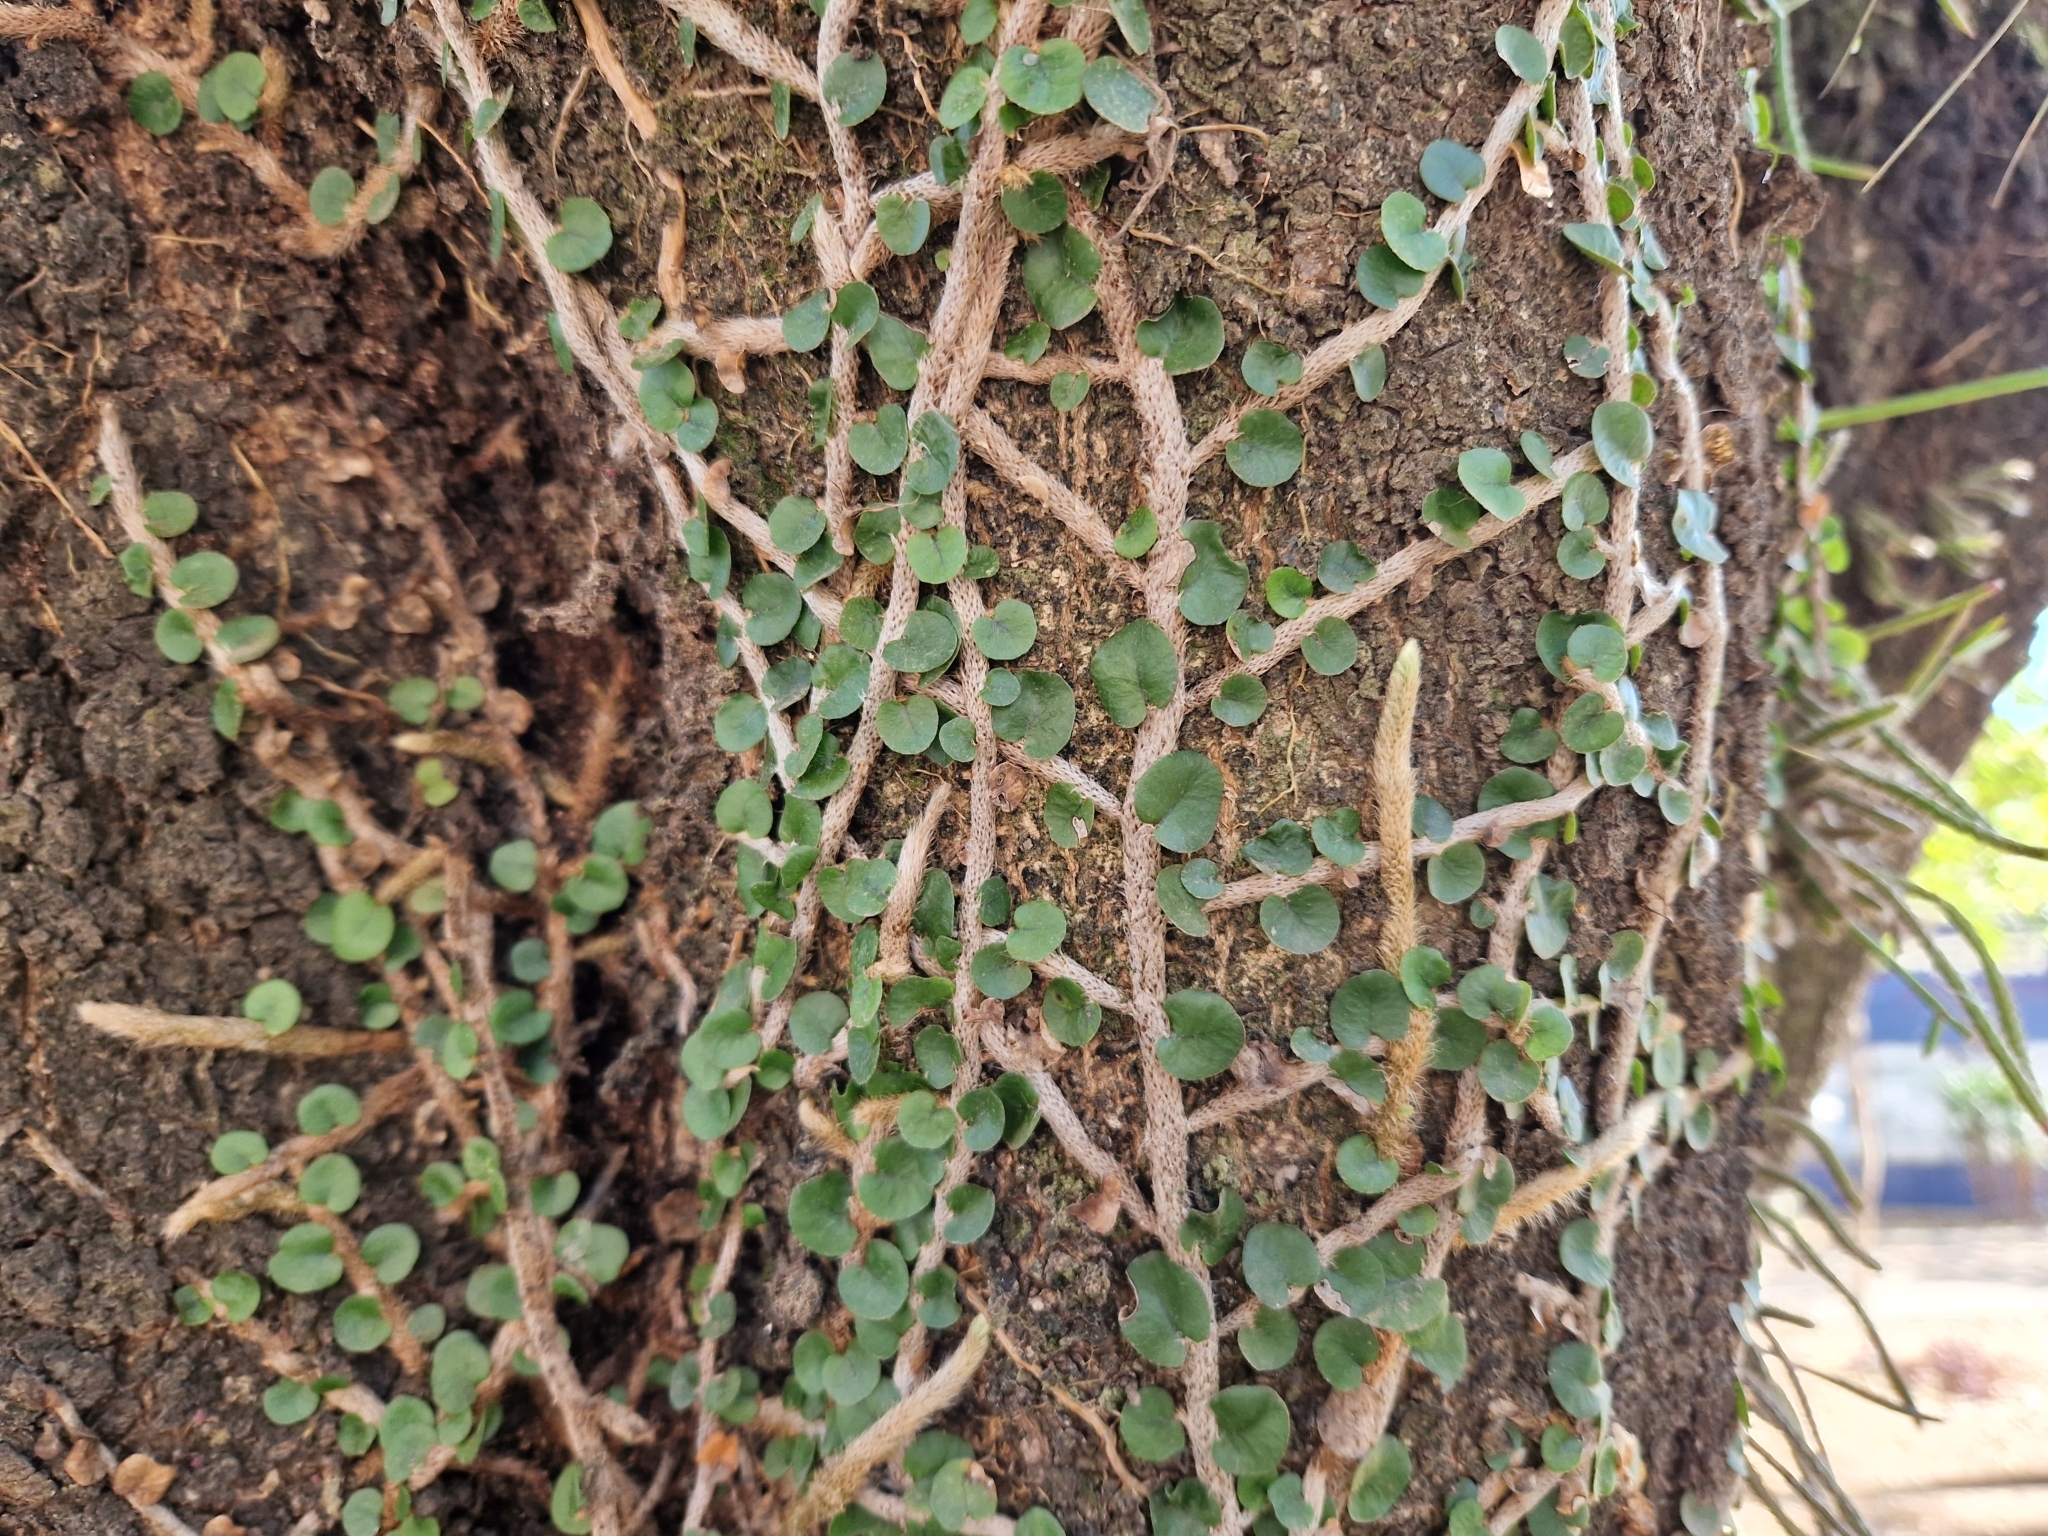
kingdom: Plantae
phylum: Tracheophyta
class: Polypodiopsida
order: Polypodiales
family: Polypodiaceae
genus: Microgramma
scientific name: Microgramma vaccinifolia
